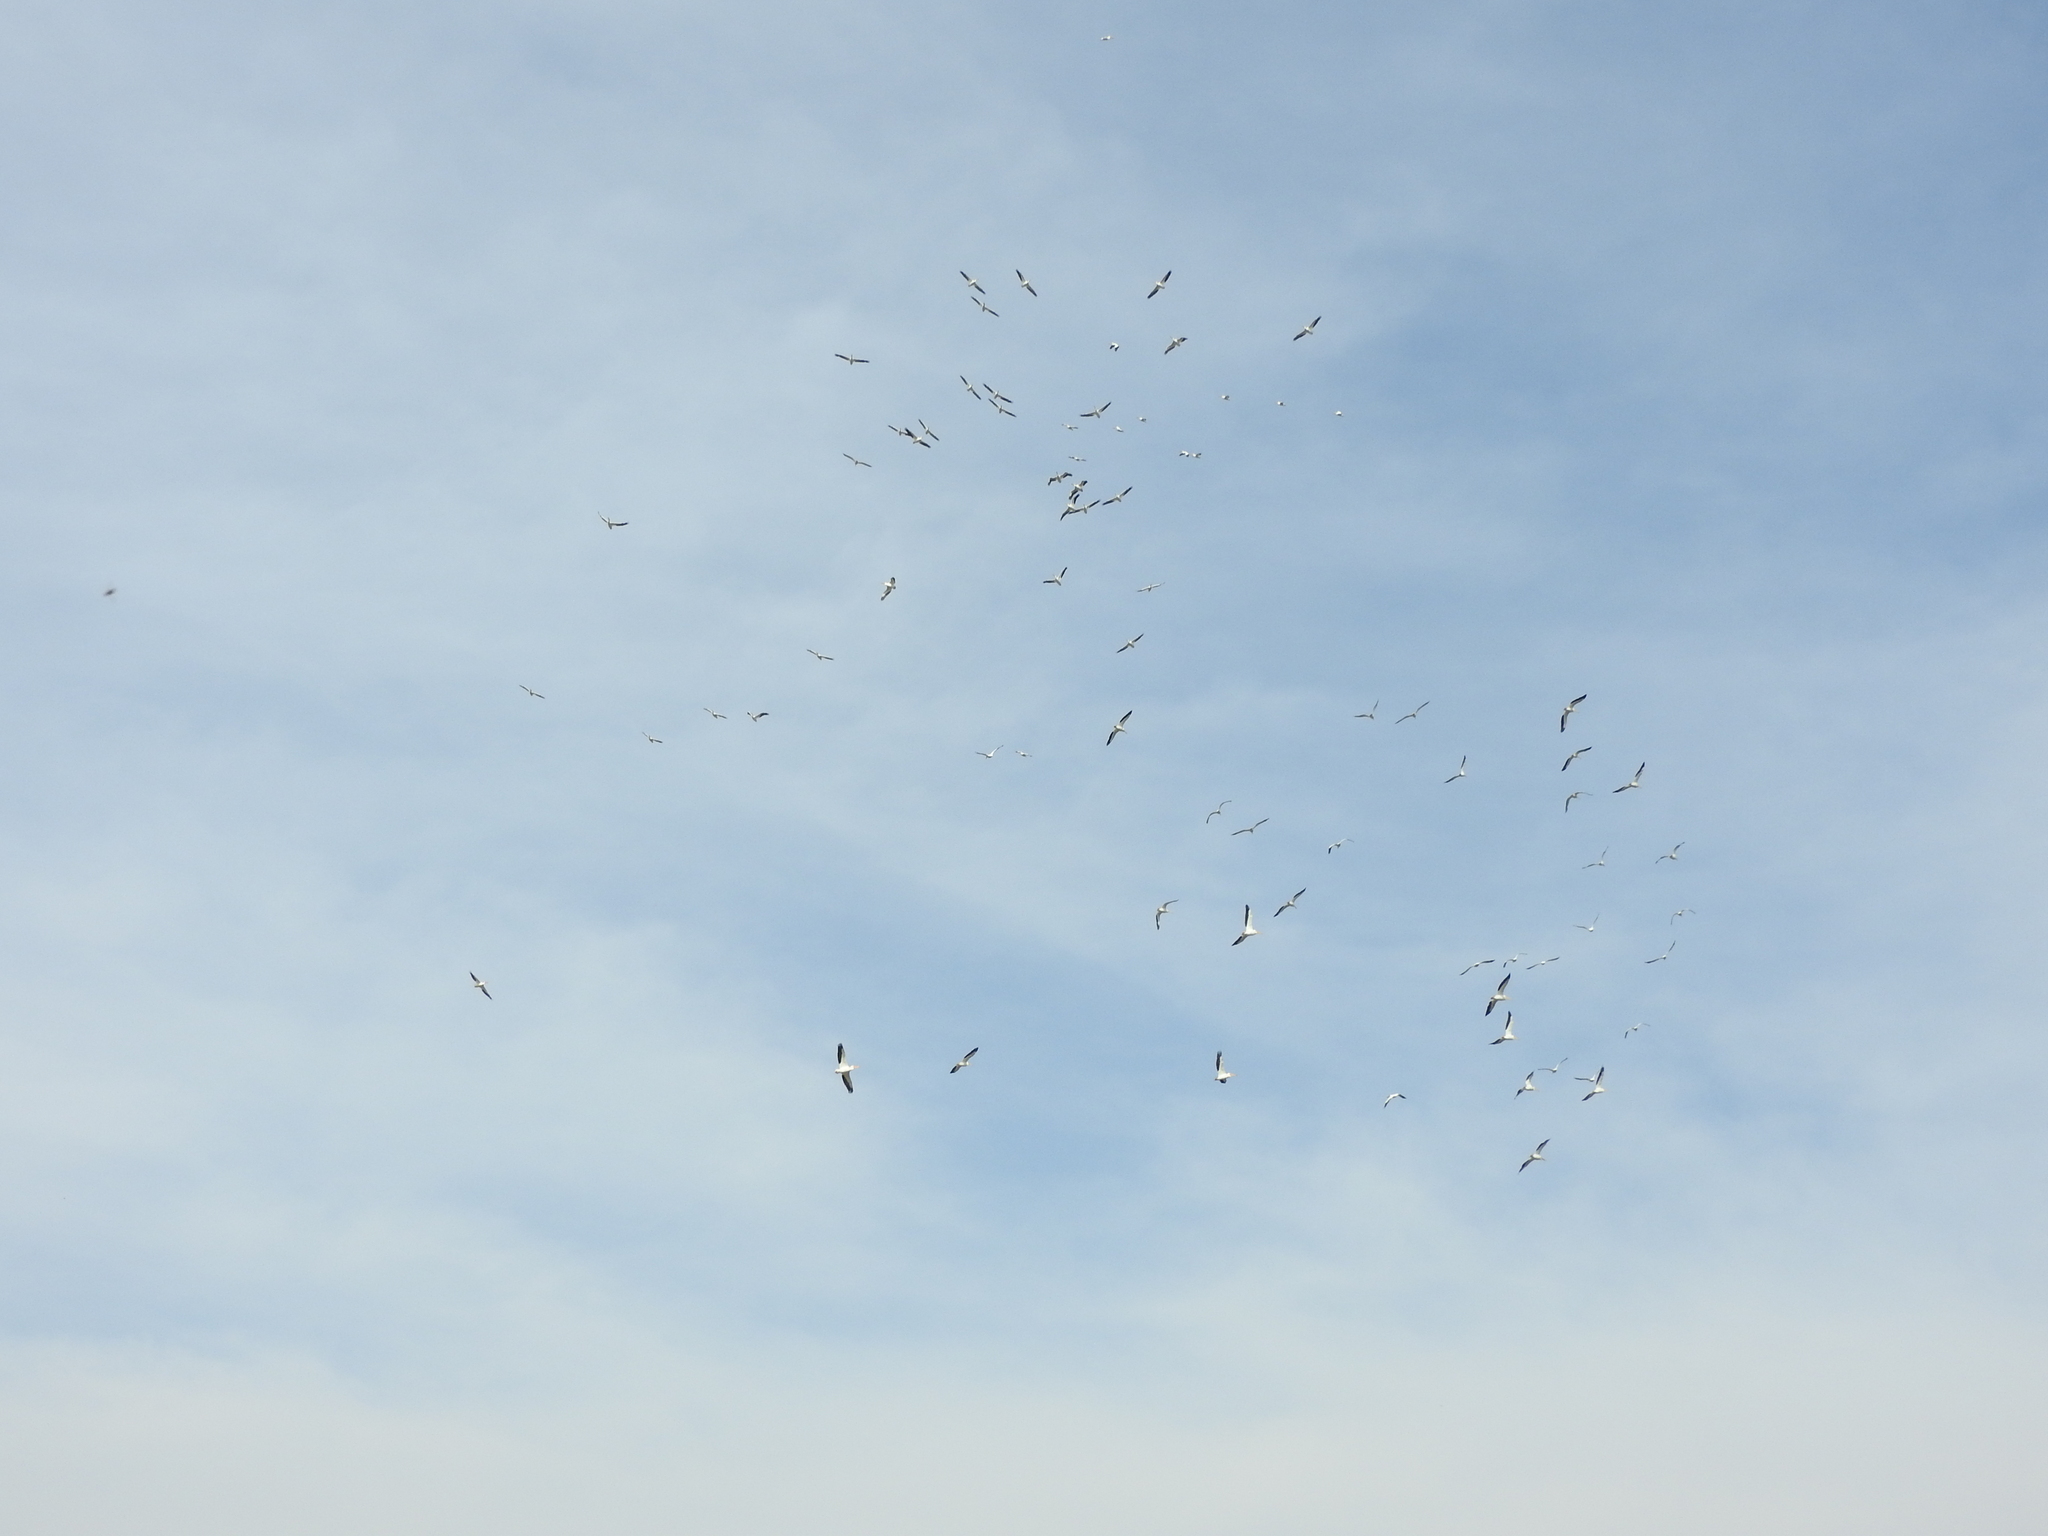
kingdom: Animalia
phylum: Chordata
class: Aves
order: Pelecaniformes
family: Pelecanidae
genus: Pelecanus
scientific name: Pelecanus erythrorhynchos
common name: American white pelican
